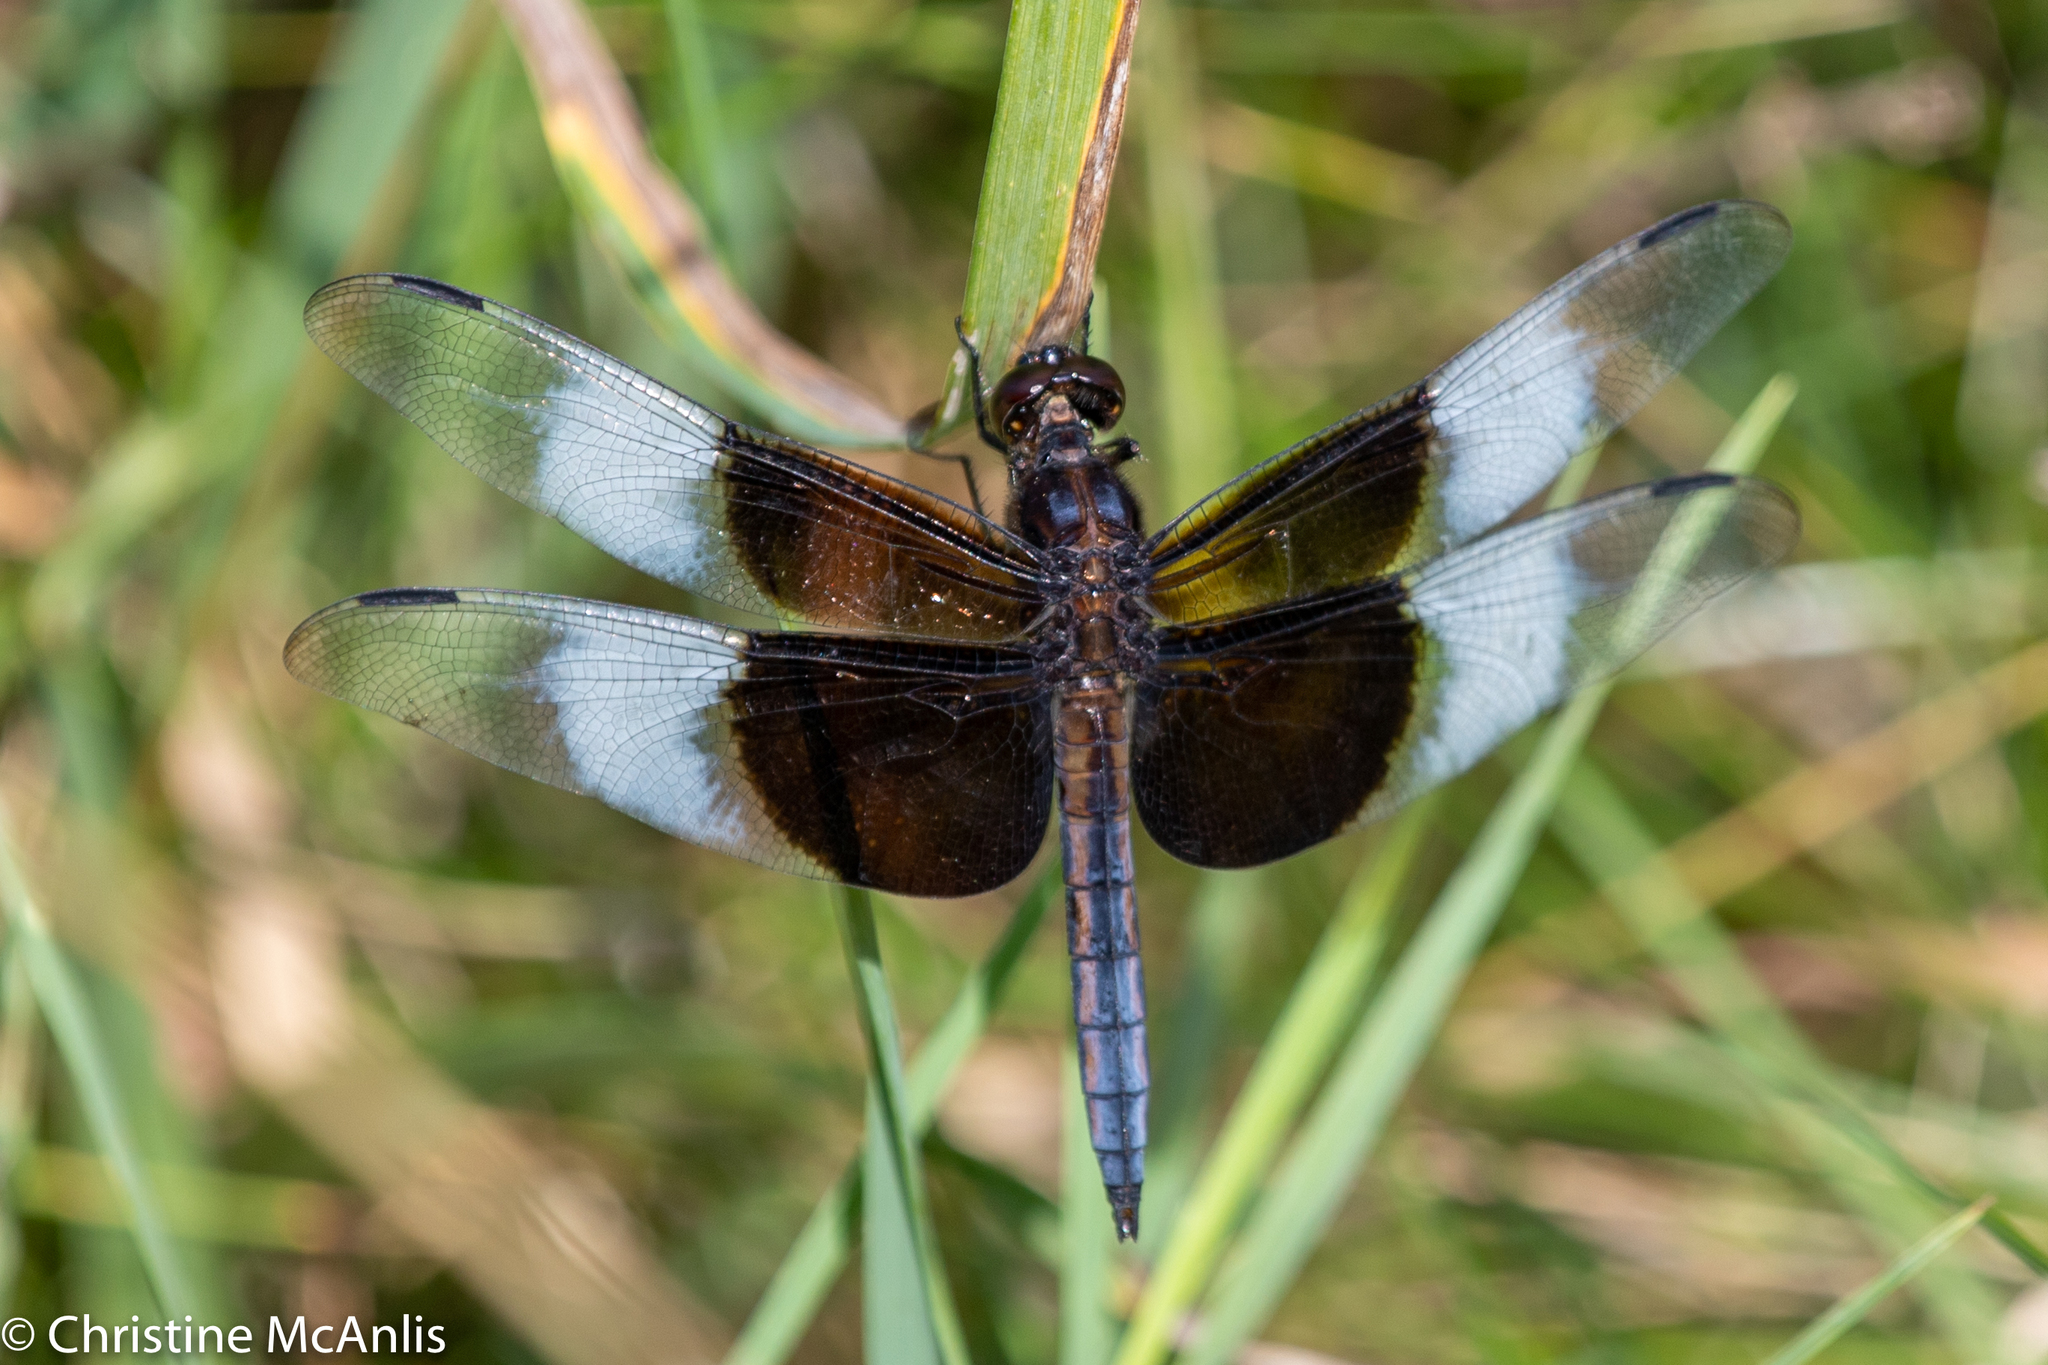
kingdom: Animalia
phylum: Arthropoda
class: Insecta
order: Odonata
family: Libellulidae
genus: Libellula
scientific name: Libellula luctuosa
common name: Widow skimmer
